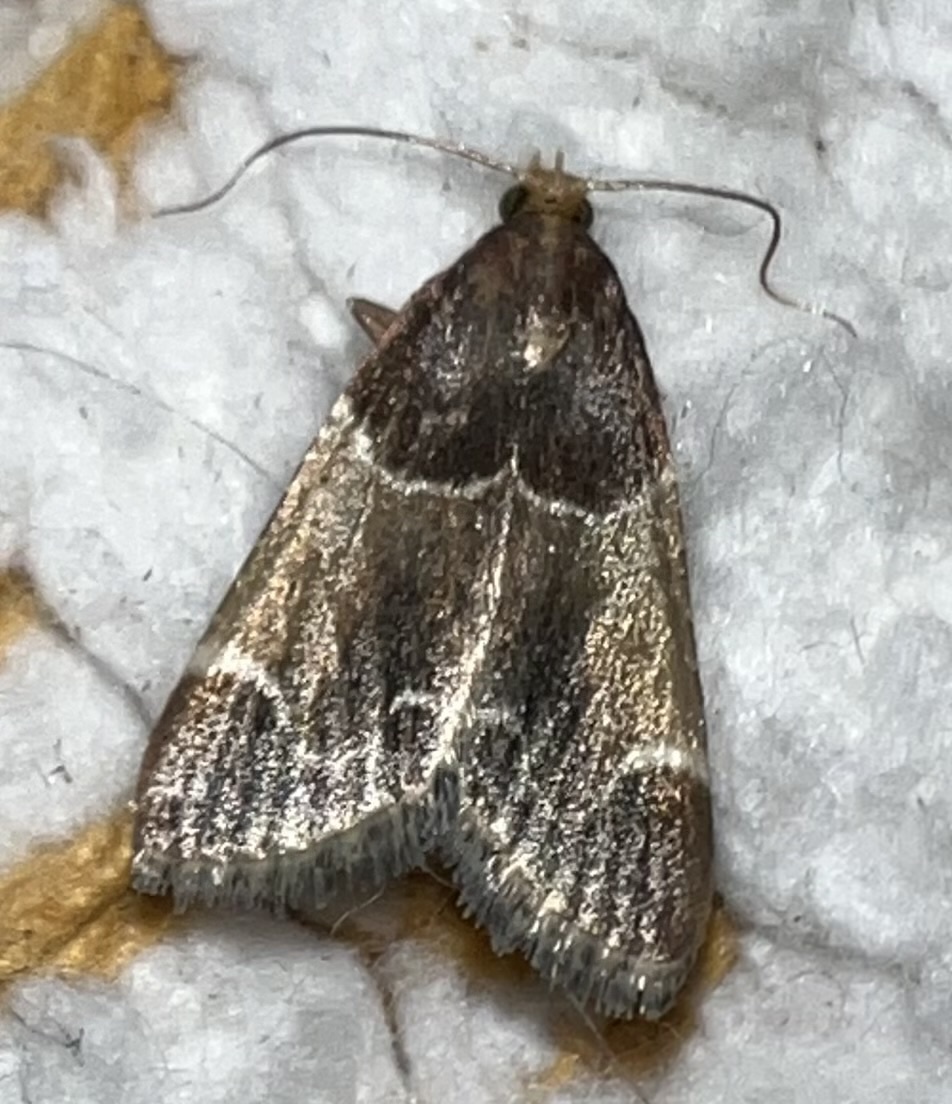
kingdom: Animalia
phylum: Arthropoda
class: Insecta
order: Lepidoptera
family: Pyralidae
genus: Pyralis
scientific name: Pyralis farinalis
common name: Meal moth
